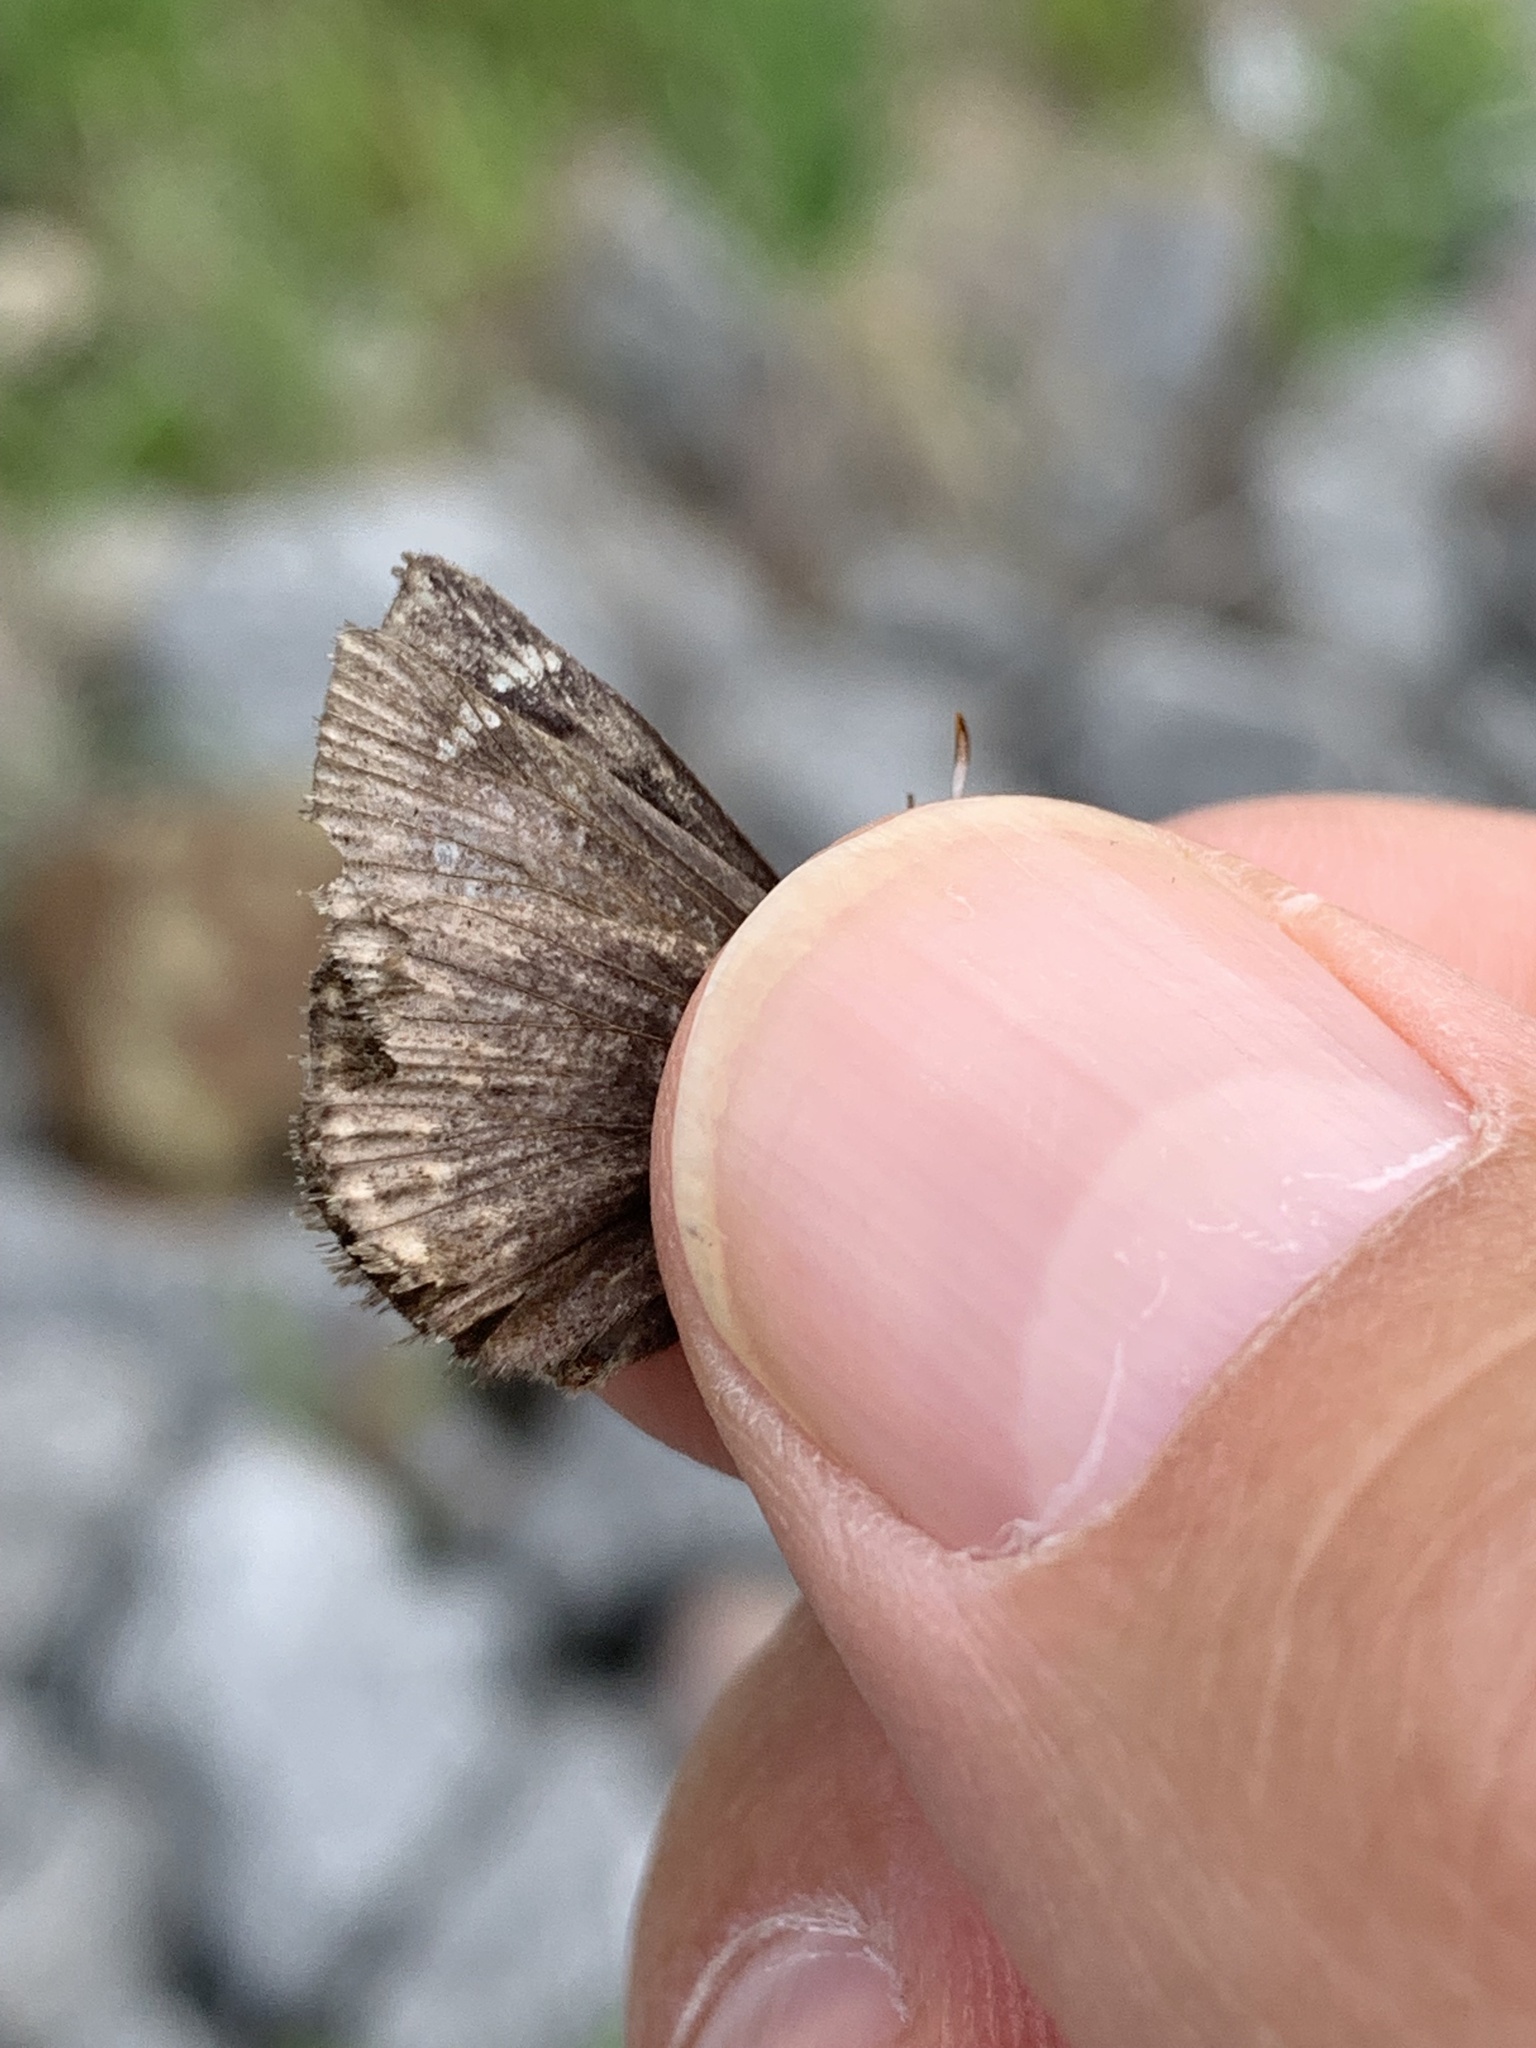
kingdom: Animalia
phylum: Arthropoda
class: Insecta
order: Lepidoptera
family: Hesperiidae
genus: Erynnis
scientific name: Erynnis persius
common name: Persius duskywing
